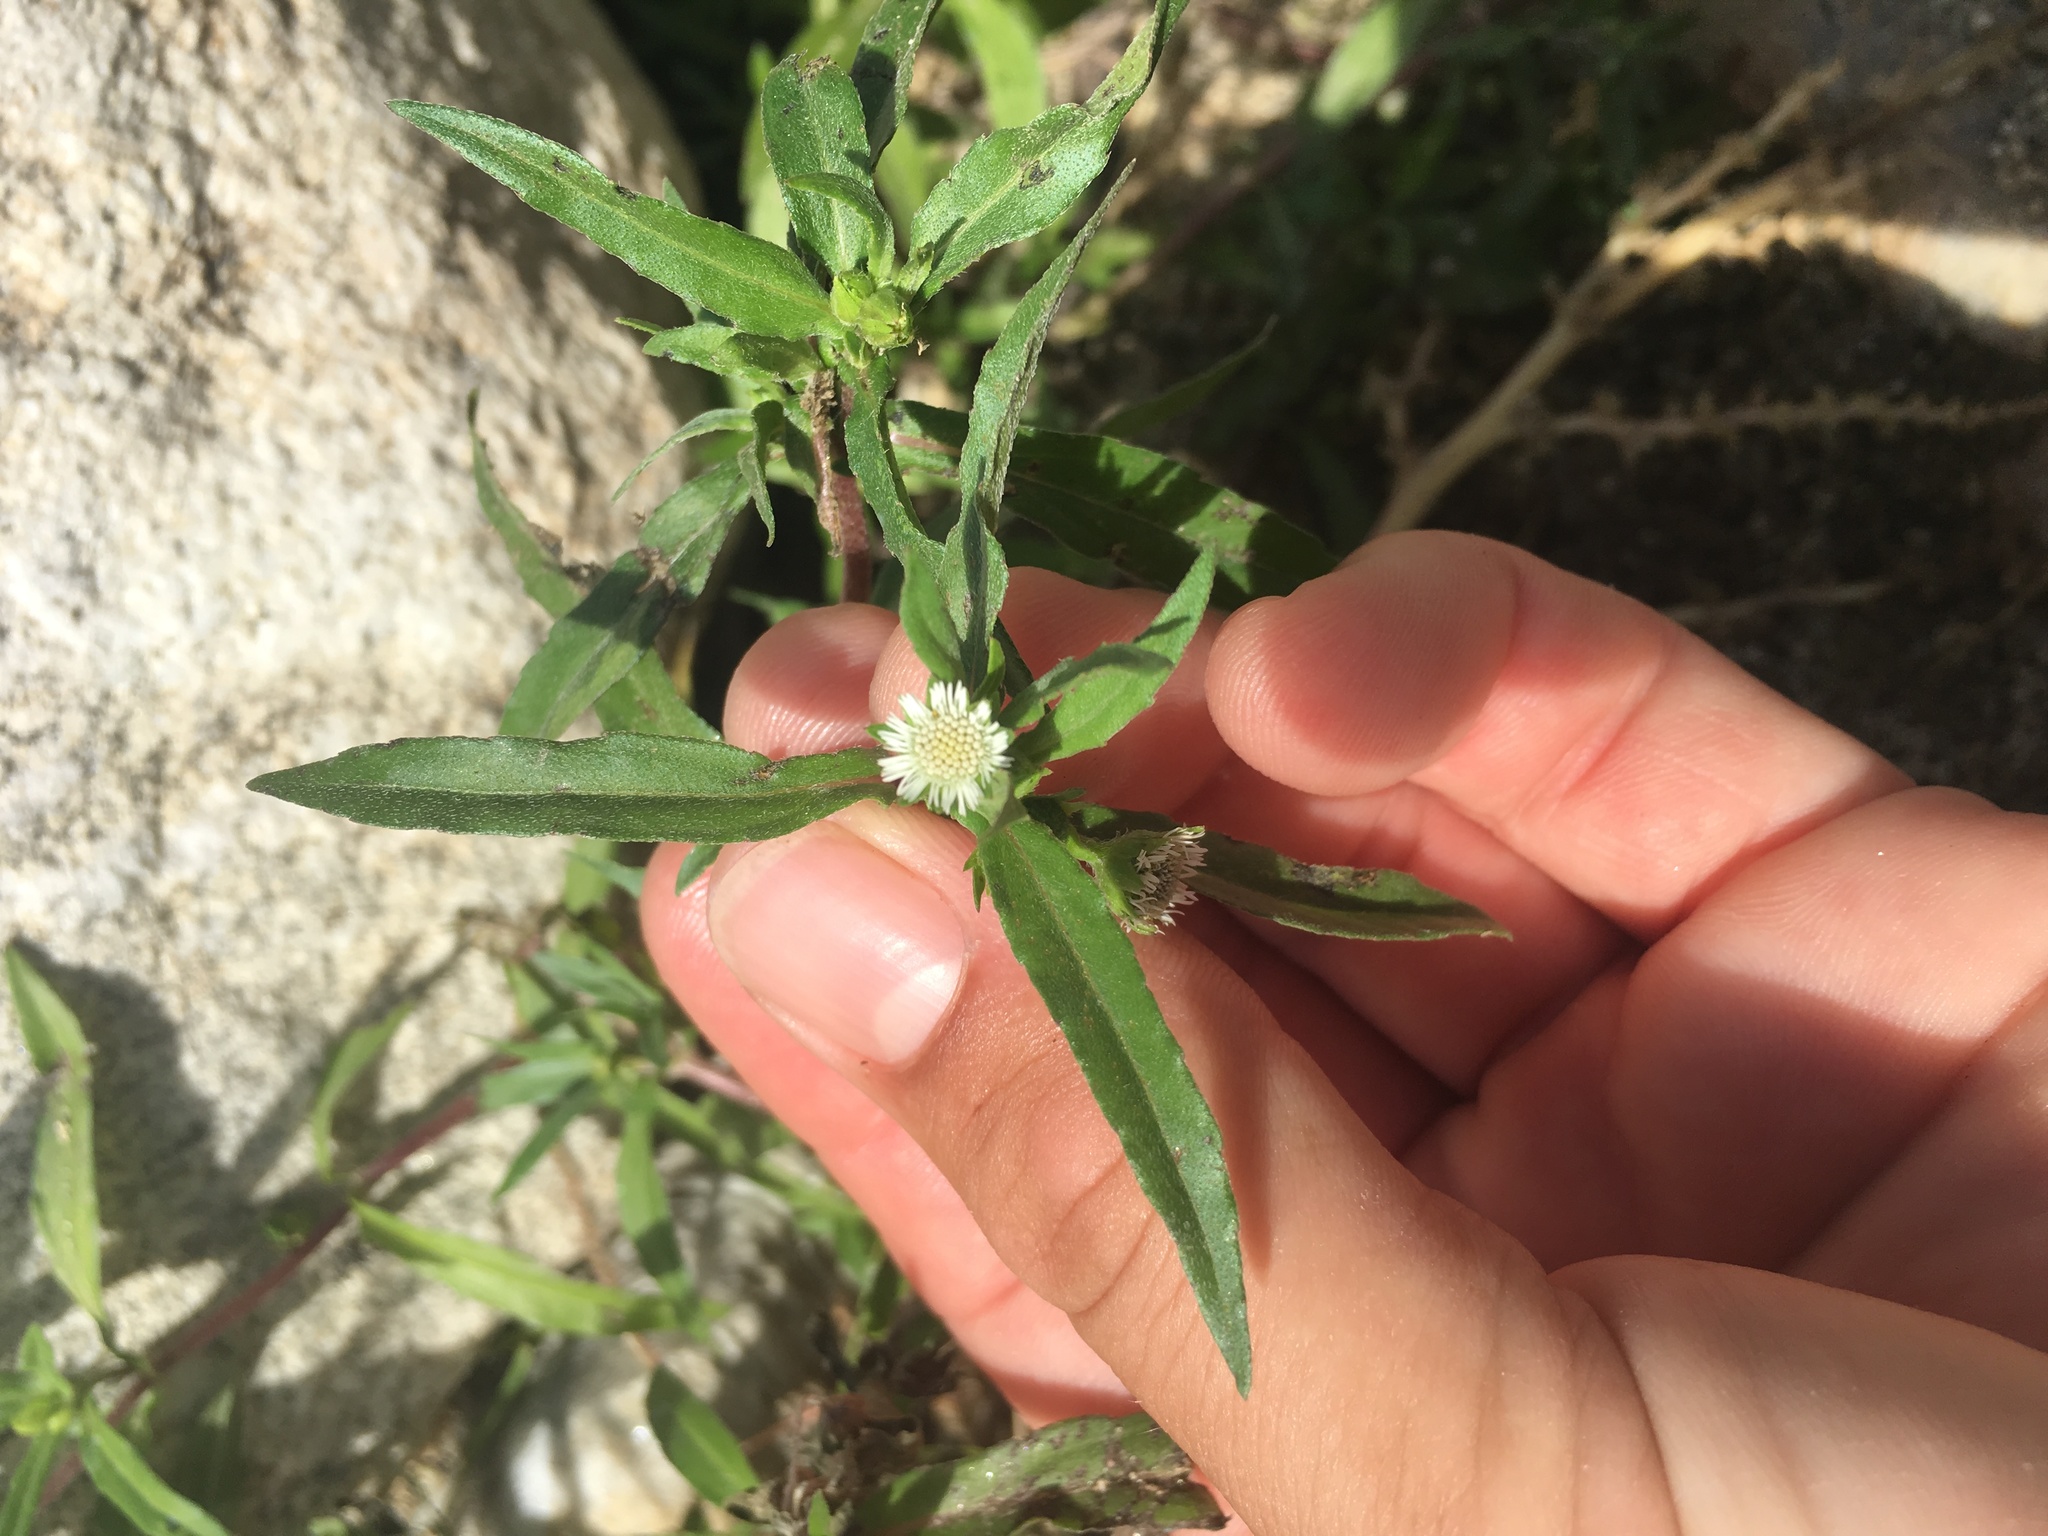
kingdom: Plantae
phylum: Tracheophyta
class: Magnoliopsida
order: Asterales
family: Asteraceae
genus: Eclipta
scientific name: Eclipta prostrata
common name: False daisy
